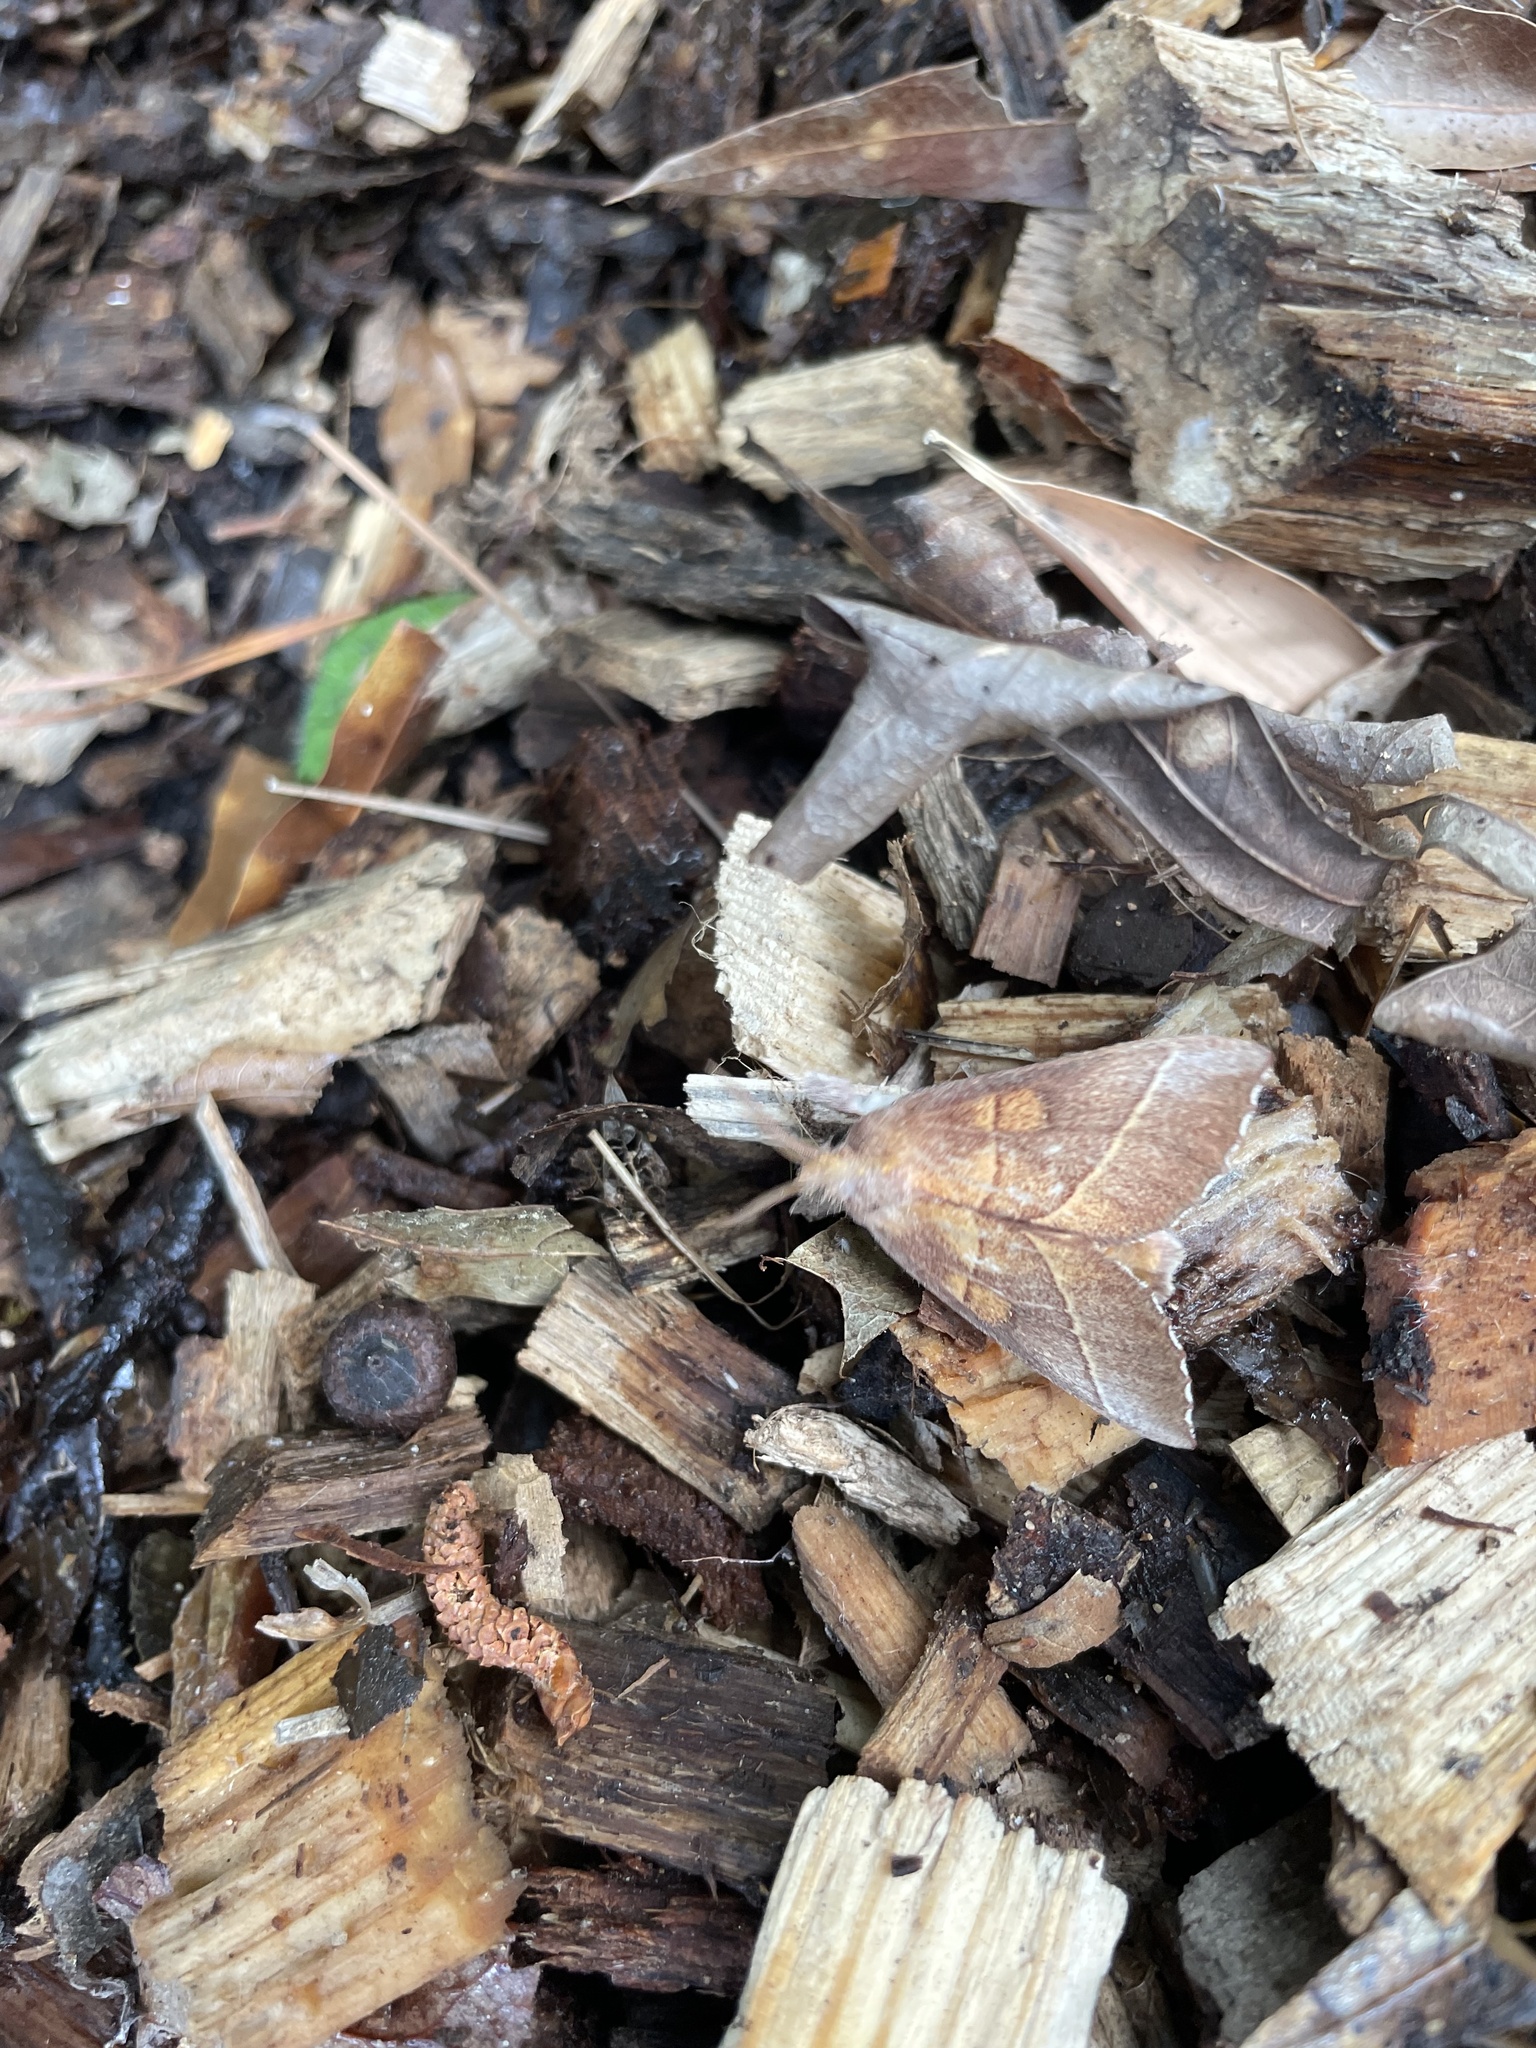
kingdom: Animalia
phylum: Arthropoda
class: Insecta
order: Lepidoptera
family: Notodontidae
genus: Nadata
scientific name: Nadata gibbosa
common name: White-dotted prominent
